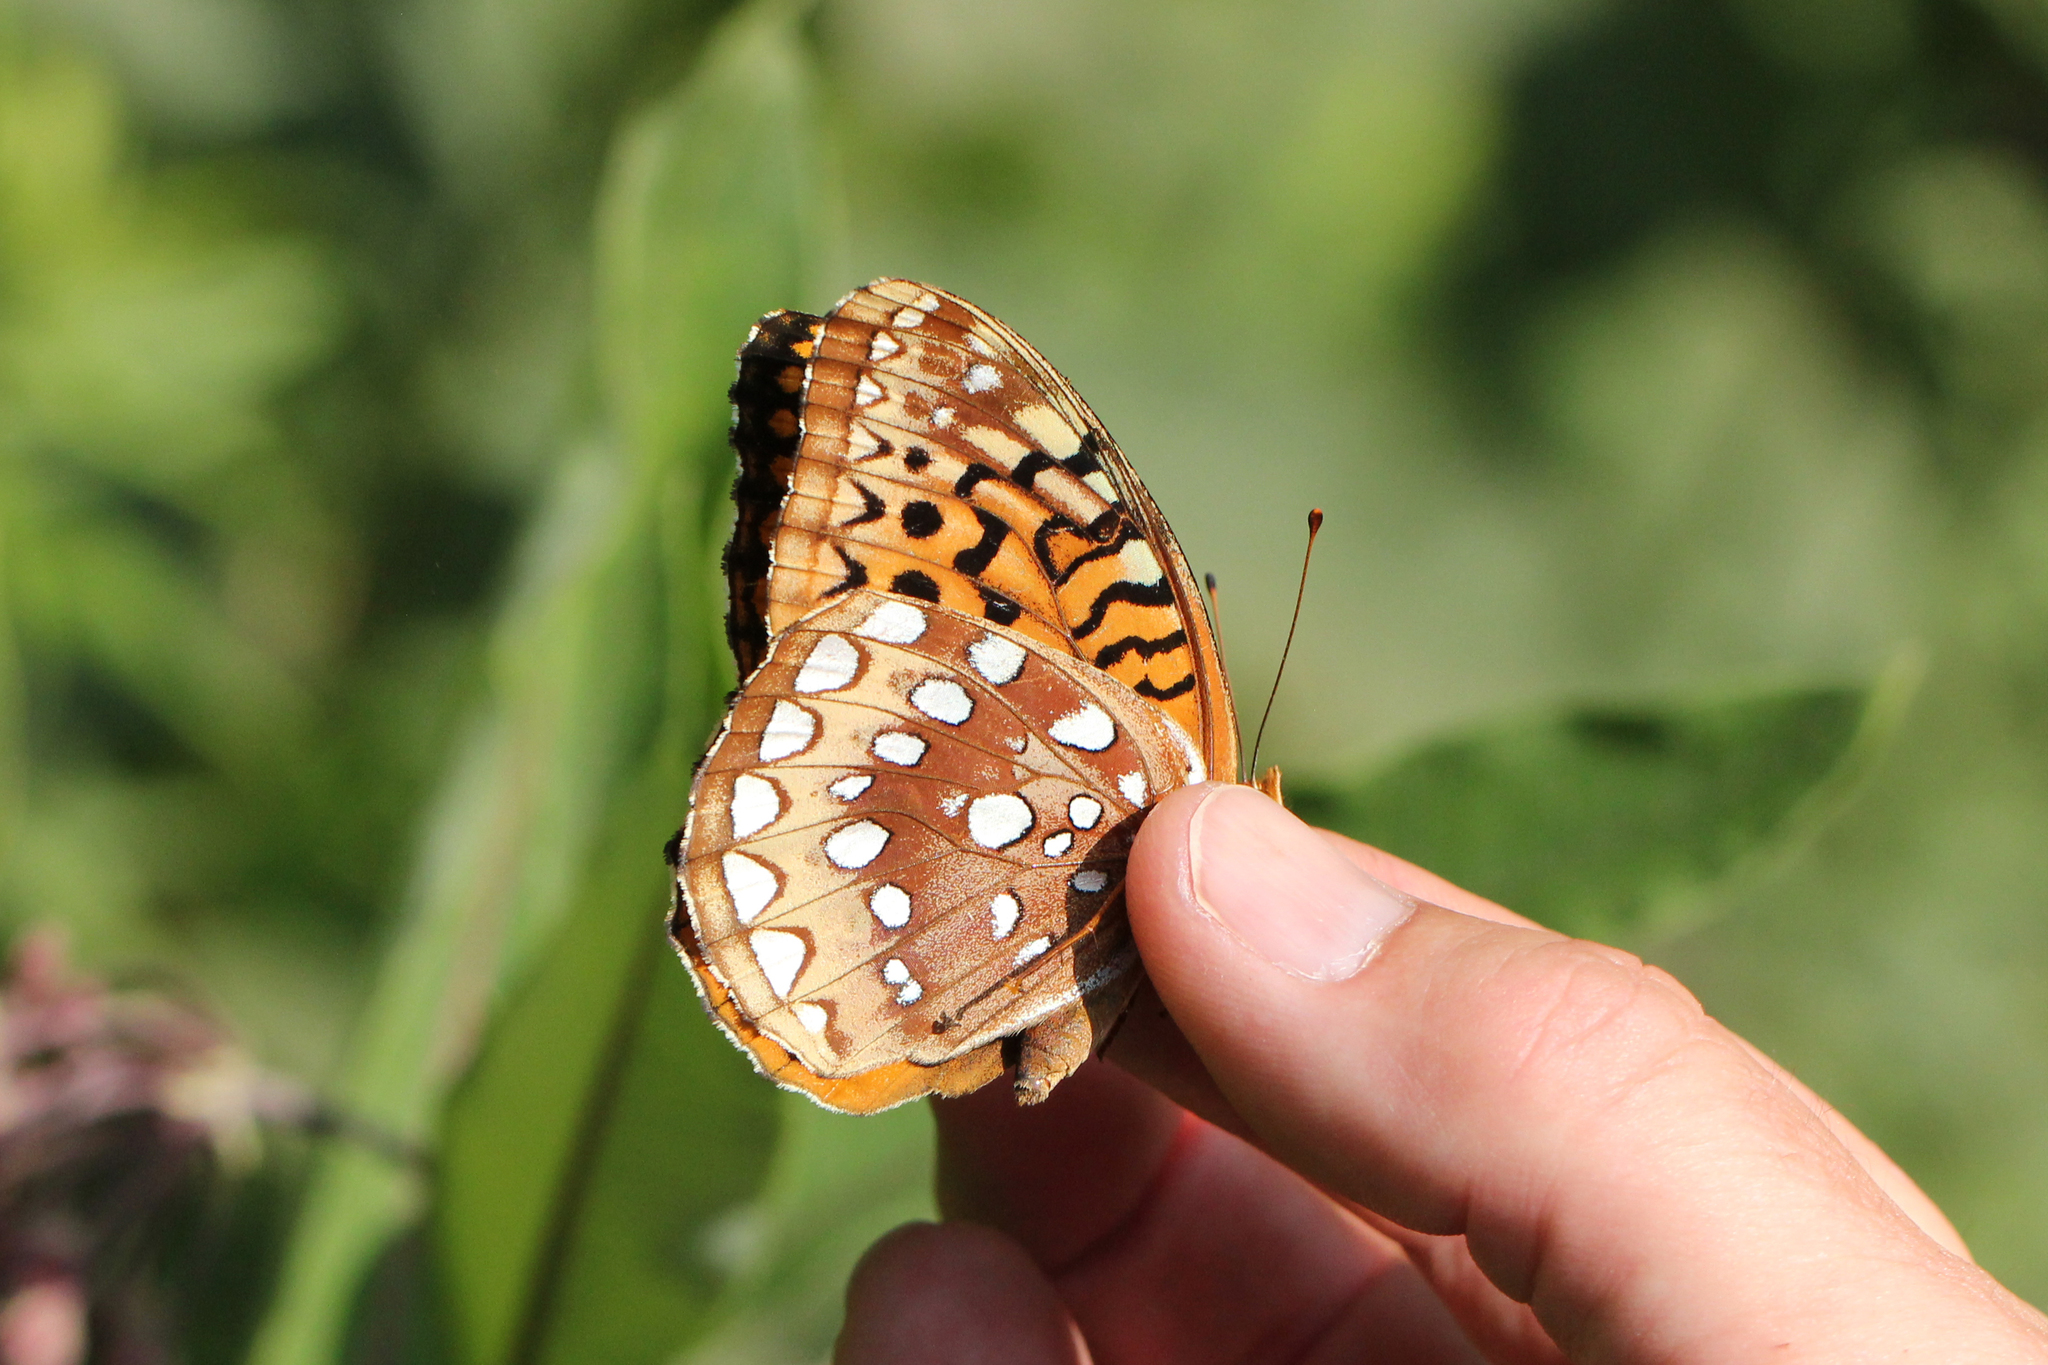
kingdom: Animalia
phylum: Arthropoda
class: Insecta
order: Lepidoptera
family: Nymphalidae
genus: Speyeria
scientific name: Speyeria cybele
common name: Great spangled fritillary
